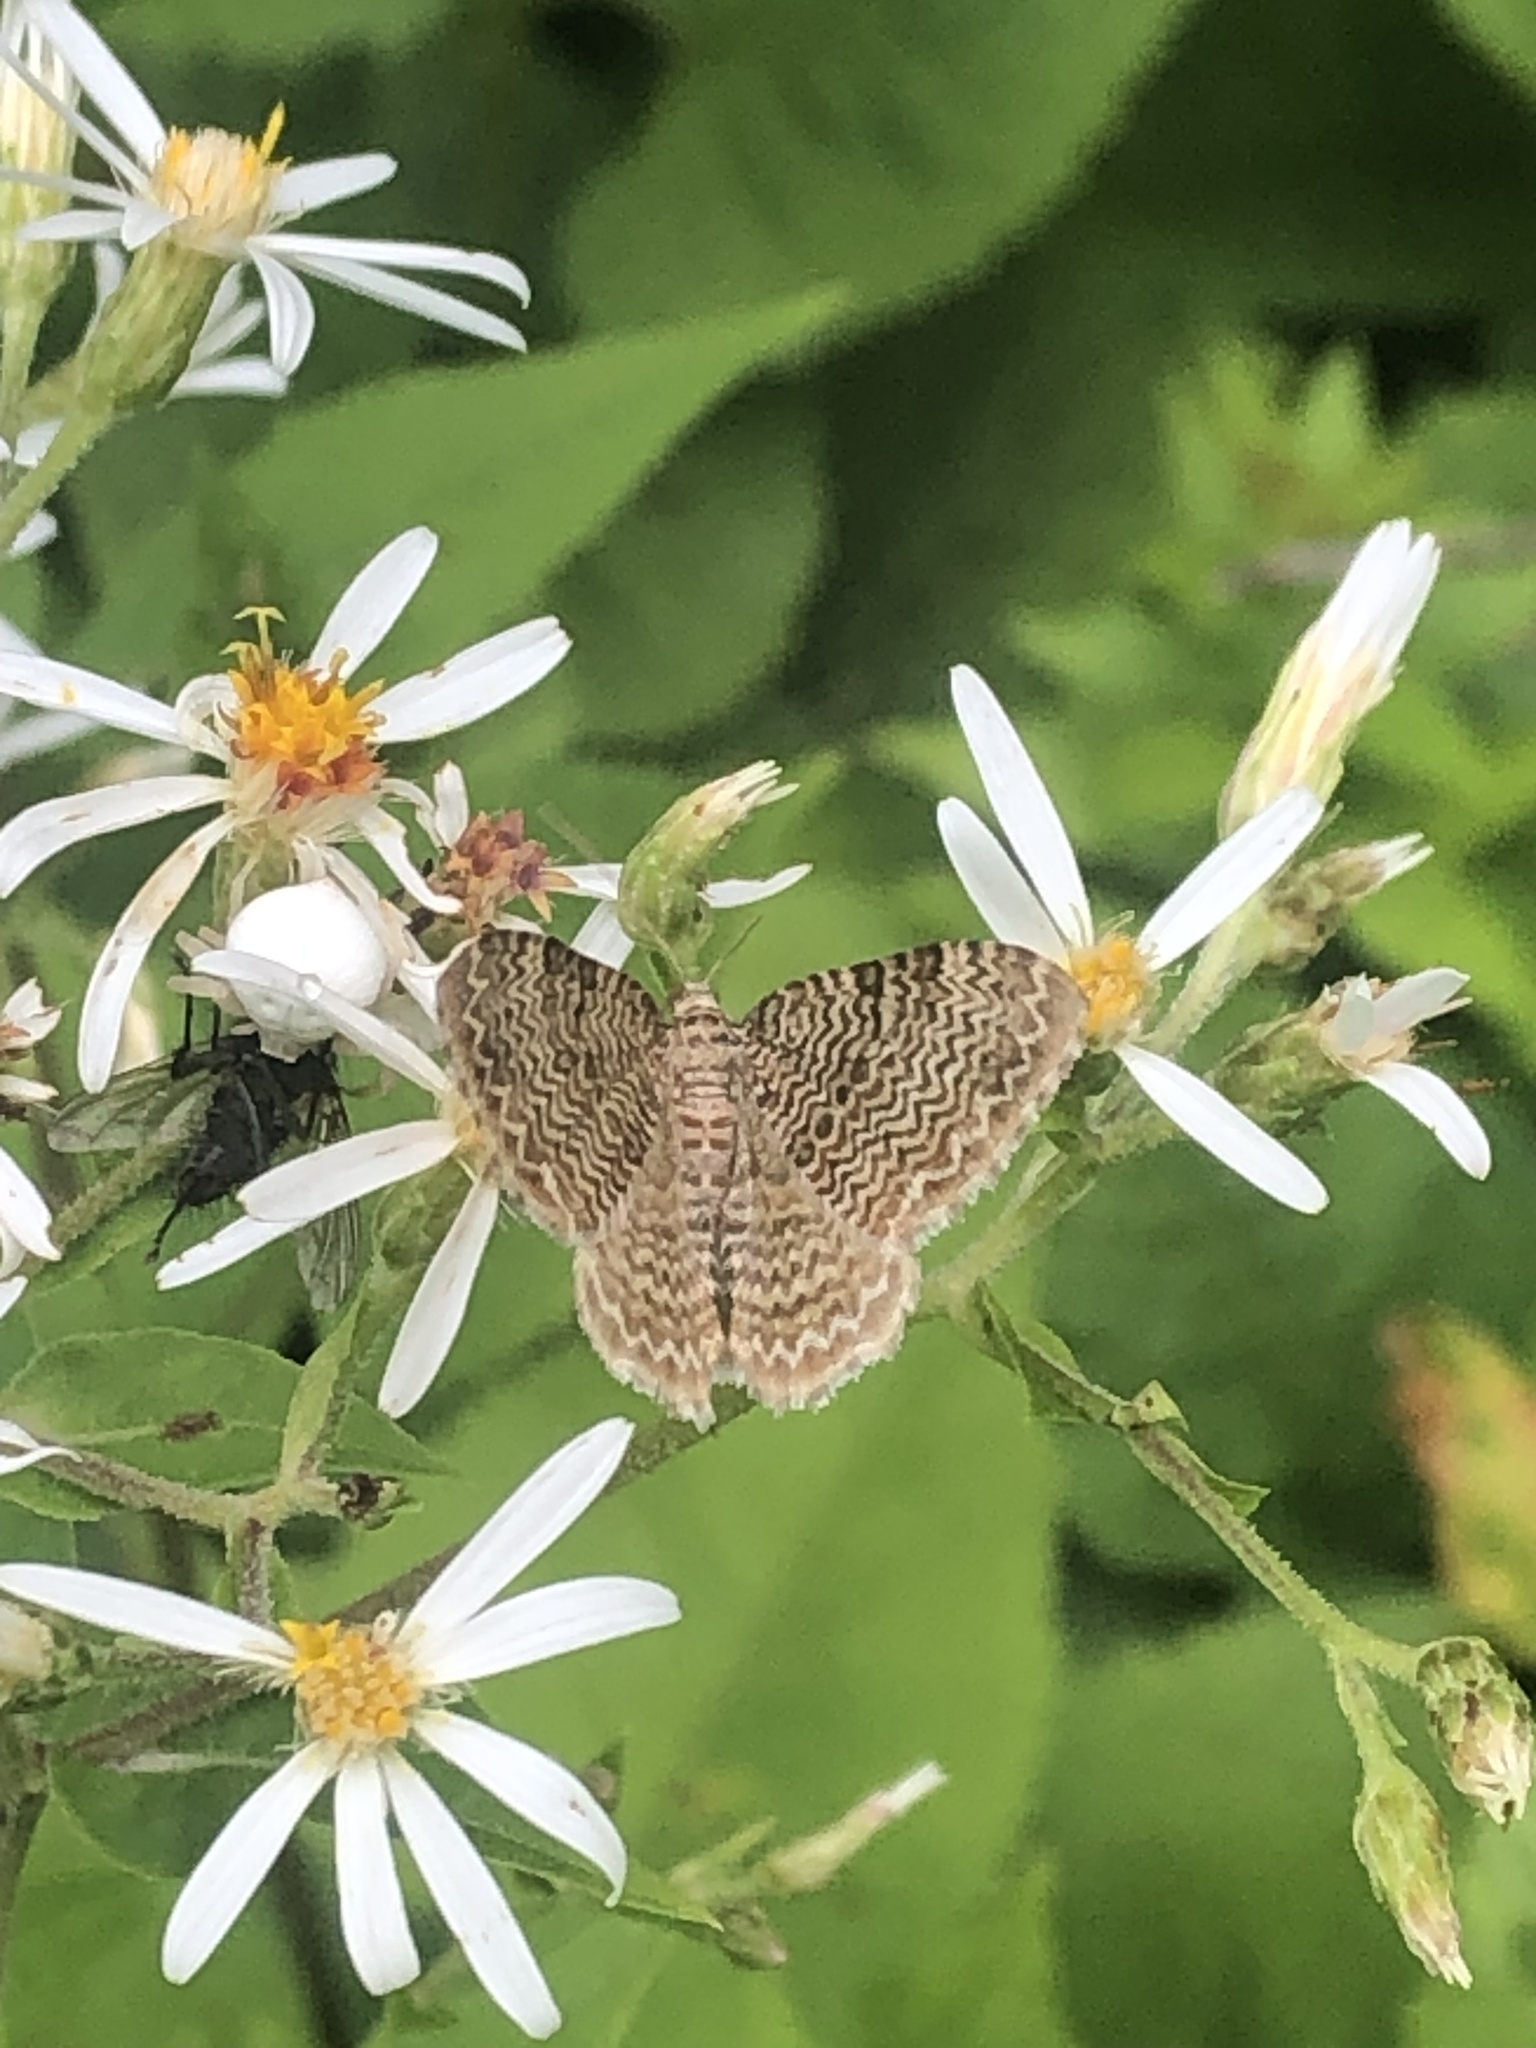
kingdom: Animalia
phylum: Arthropoda
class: Insecta
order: Lepidoptera
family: Geometridae
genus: Rheumaptera
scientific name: Rheumaptera
